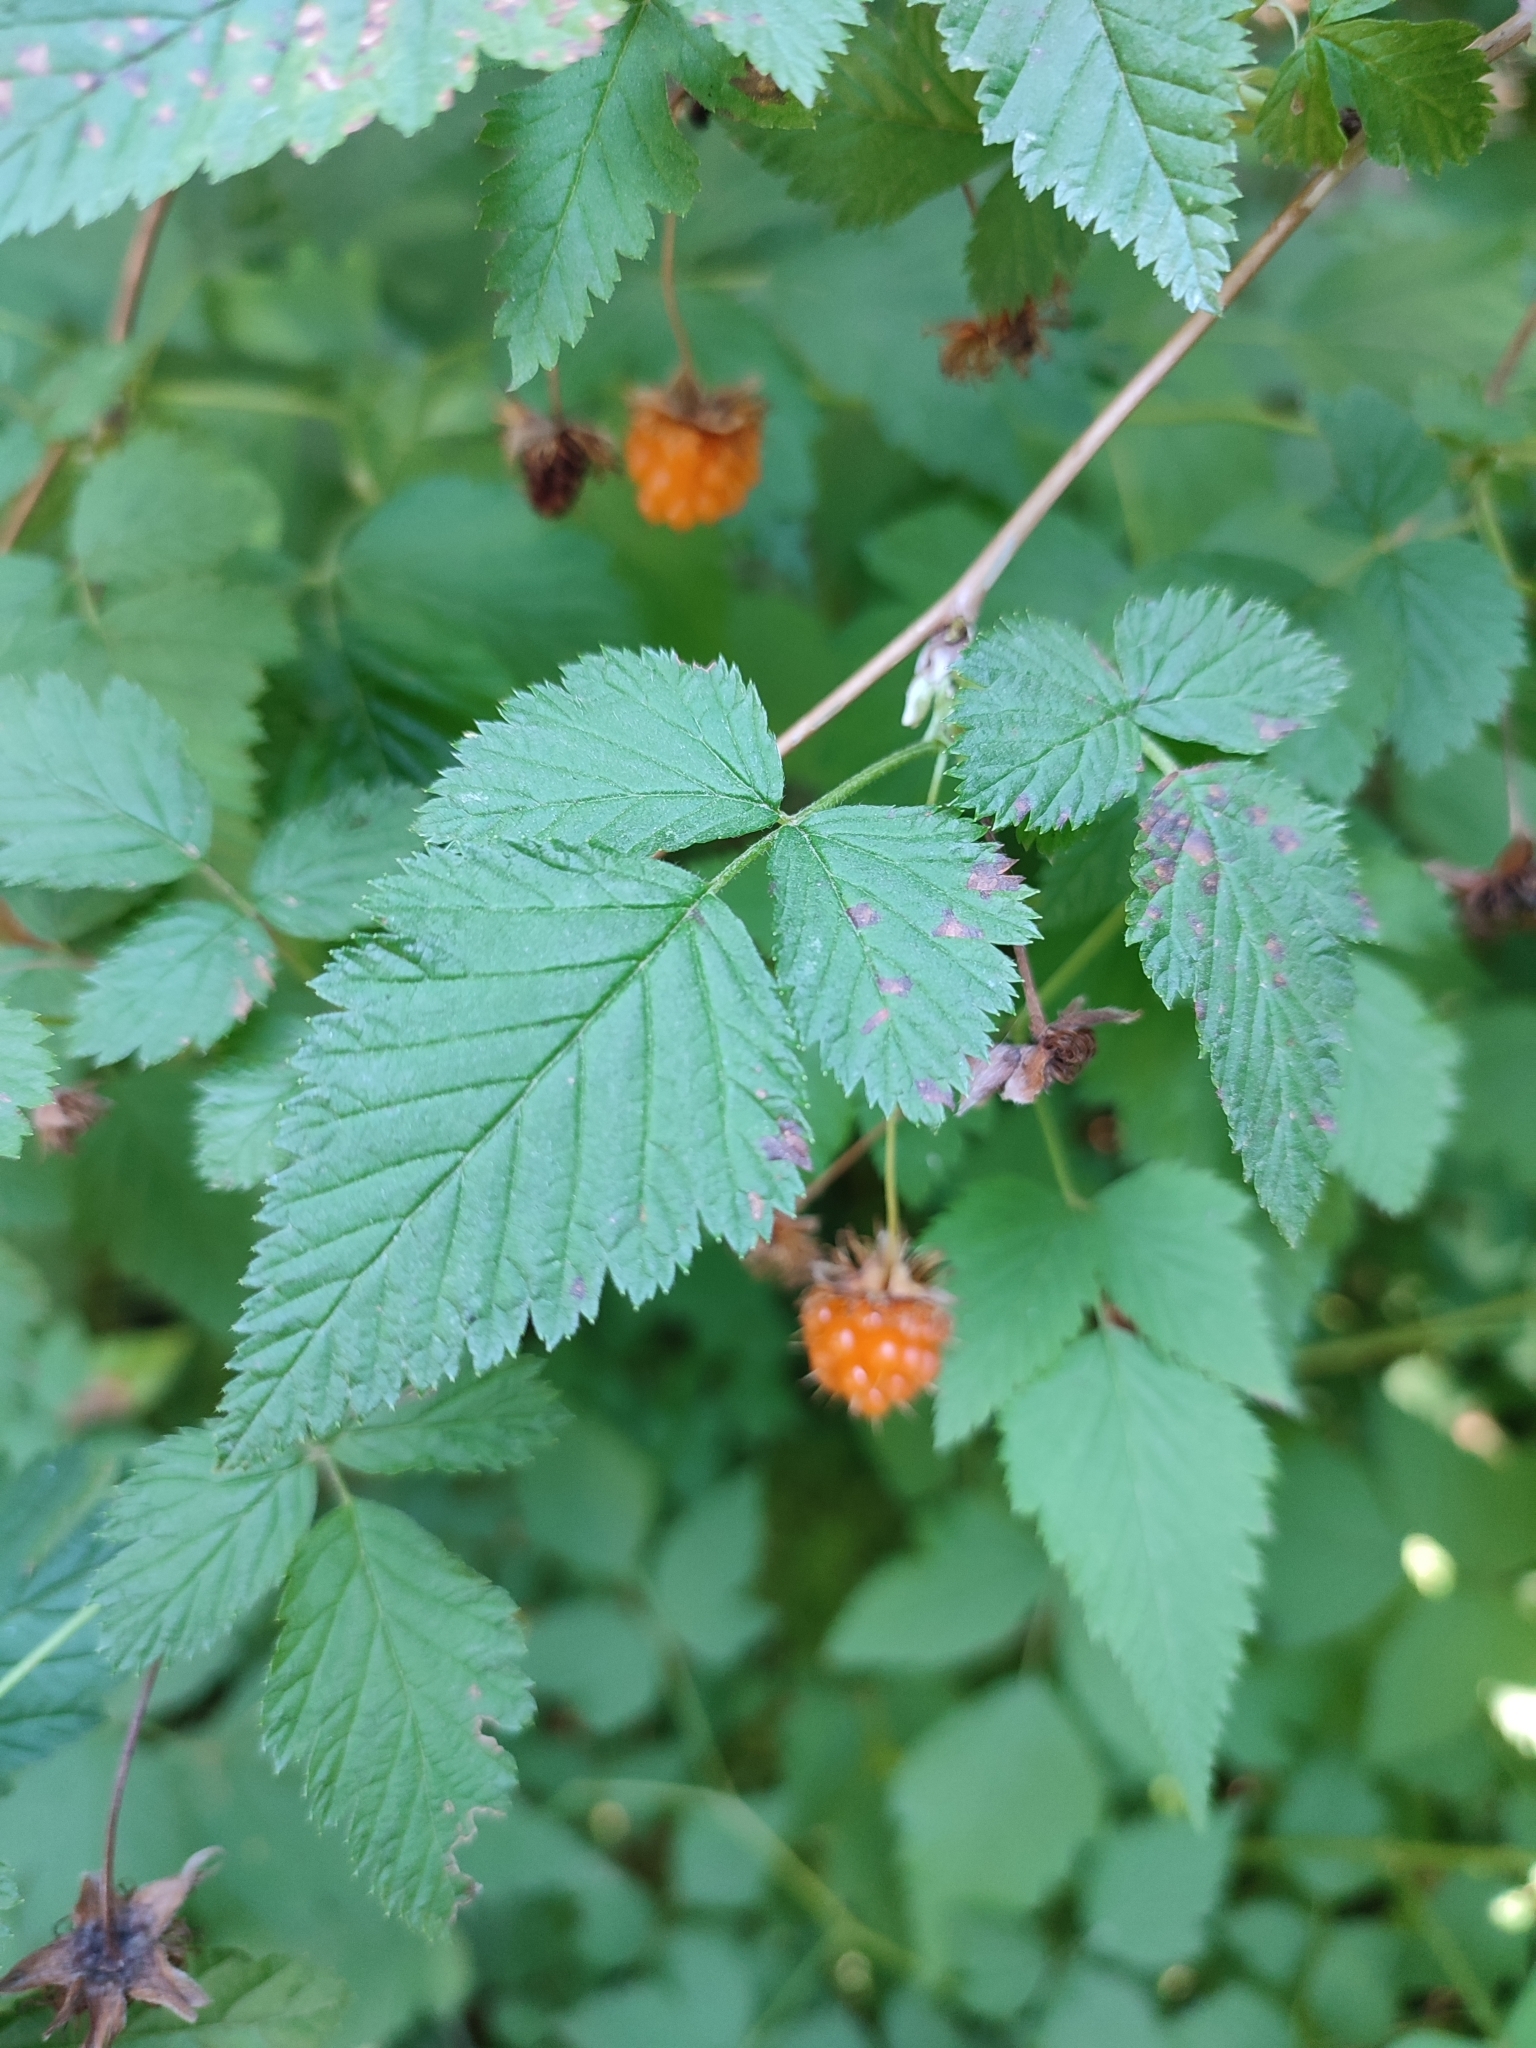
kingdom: Plantae
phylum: Tracheophyta
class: Magnoliopsida
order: Rosales
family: Rosaceae
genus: Rubus
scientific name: Rubus spectabilis
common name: Salmonberry
